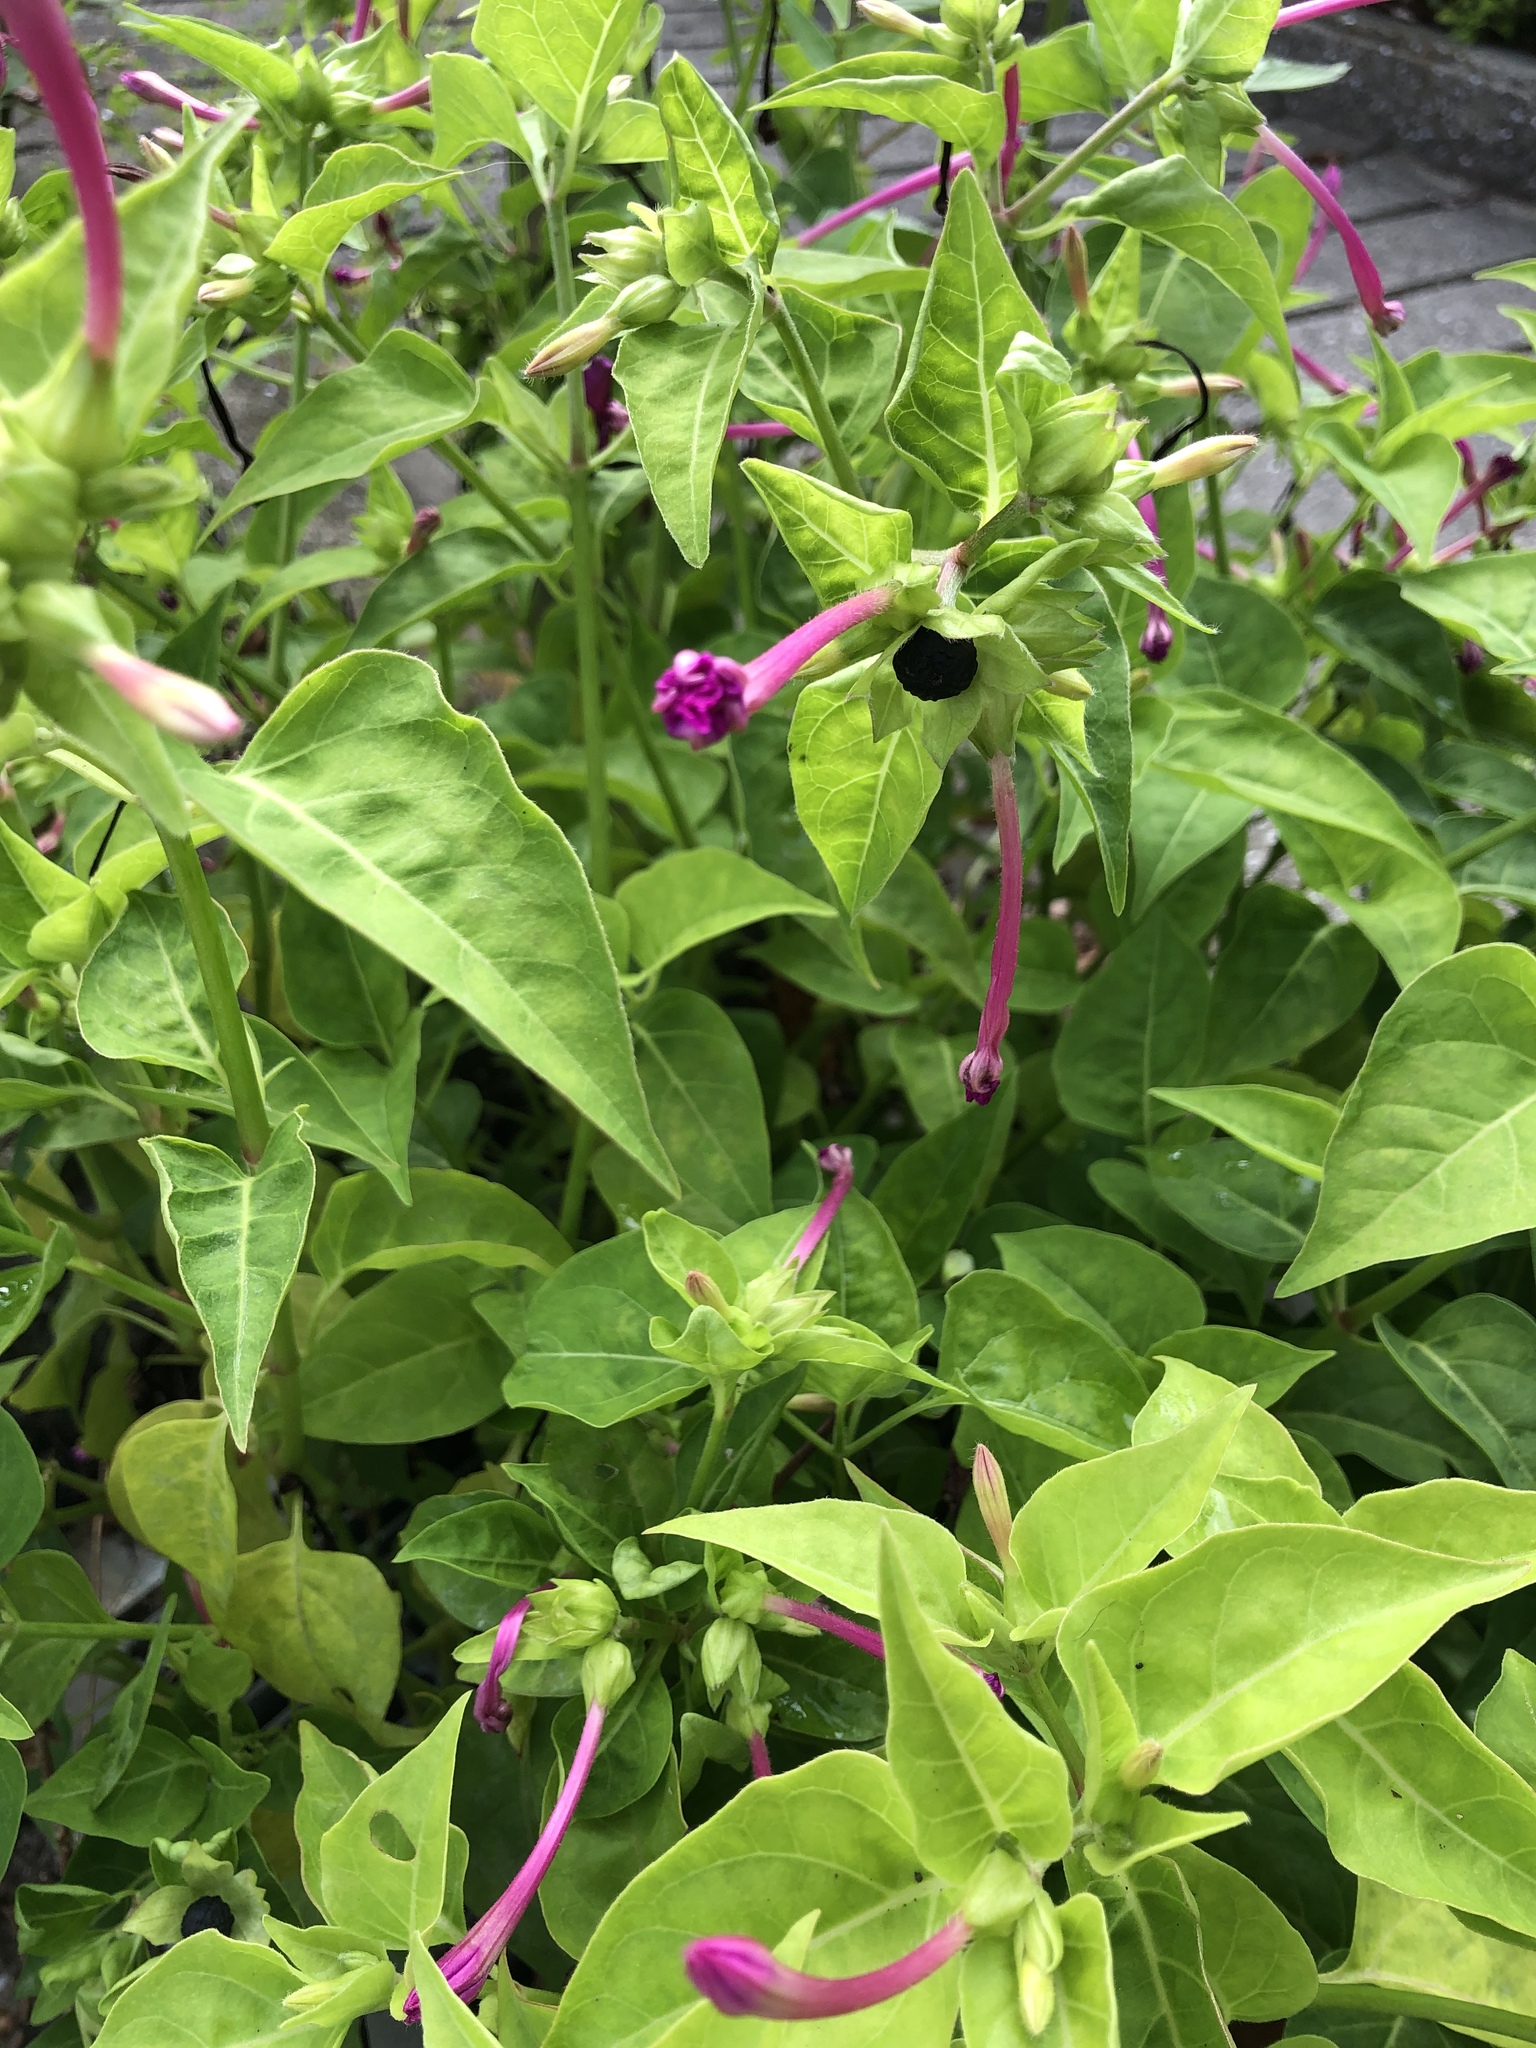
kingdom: Plantae
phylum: Tracheophyta
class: Magnoliopsida
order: Caryophyllales
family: Nyctaginaceae
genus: Mirabilis
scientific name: Mirabilis jalapa
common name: Marvel-of-peru
